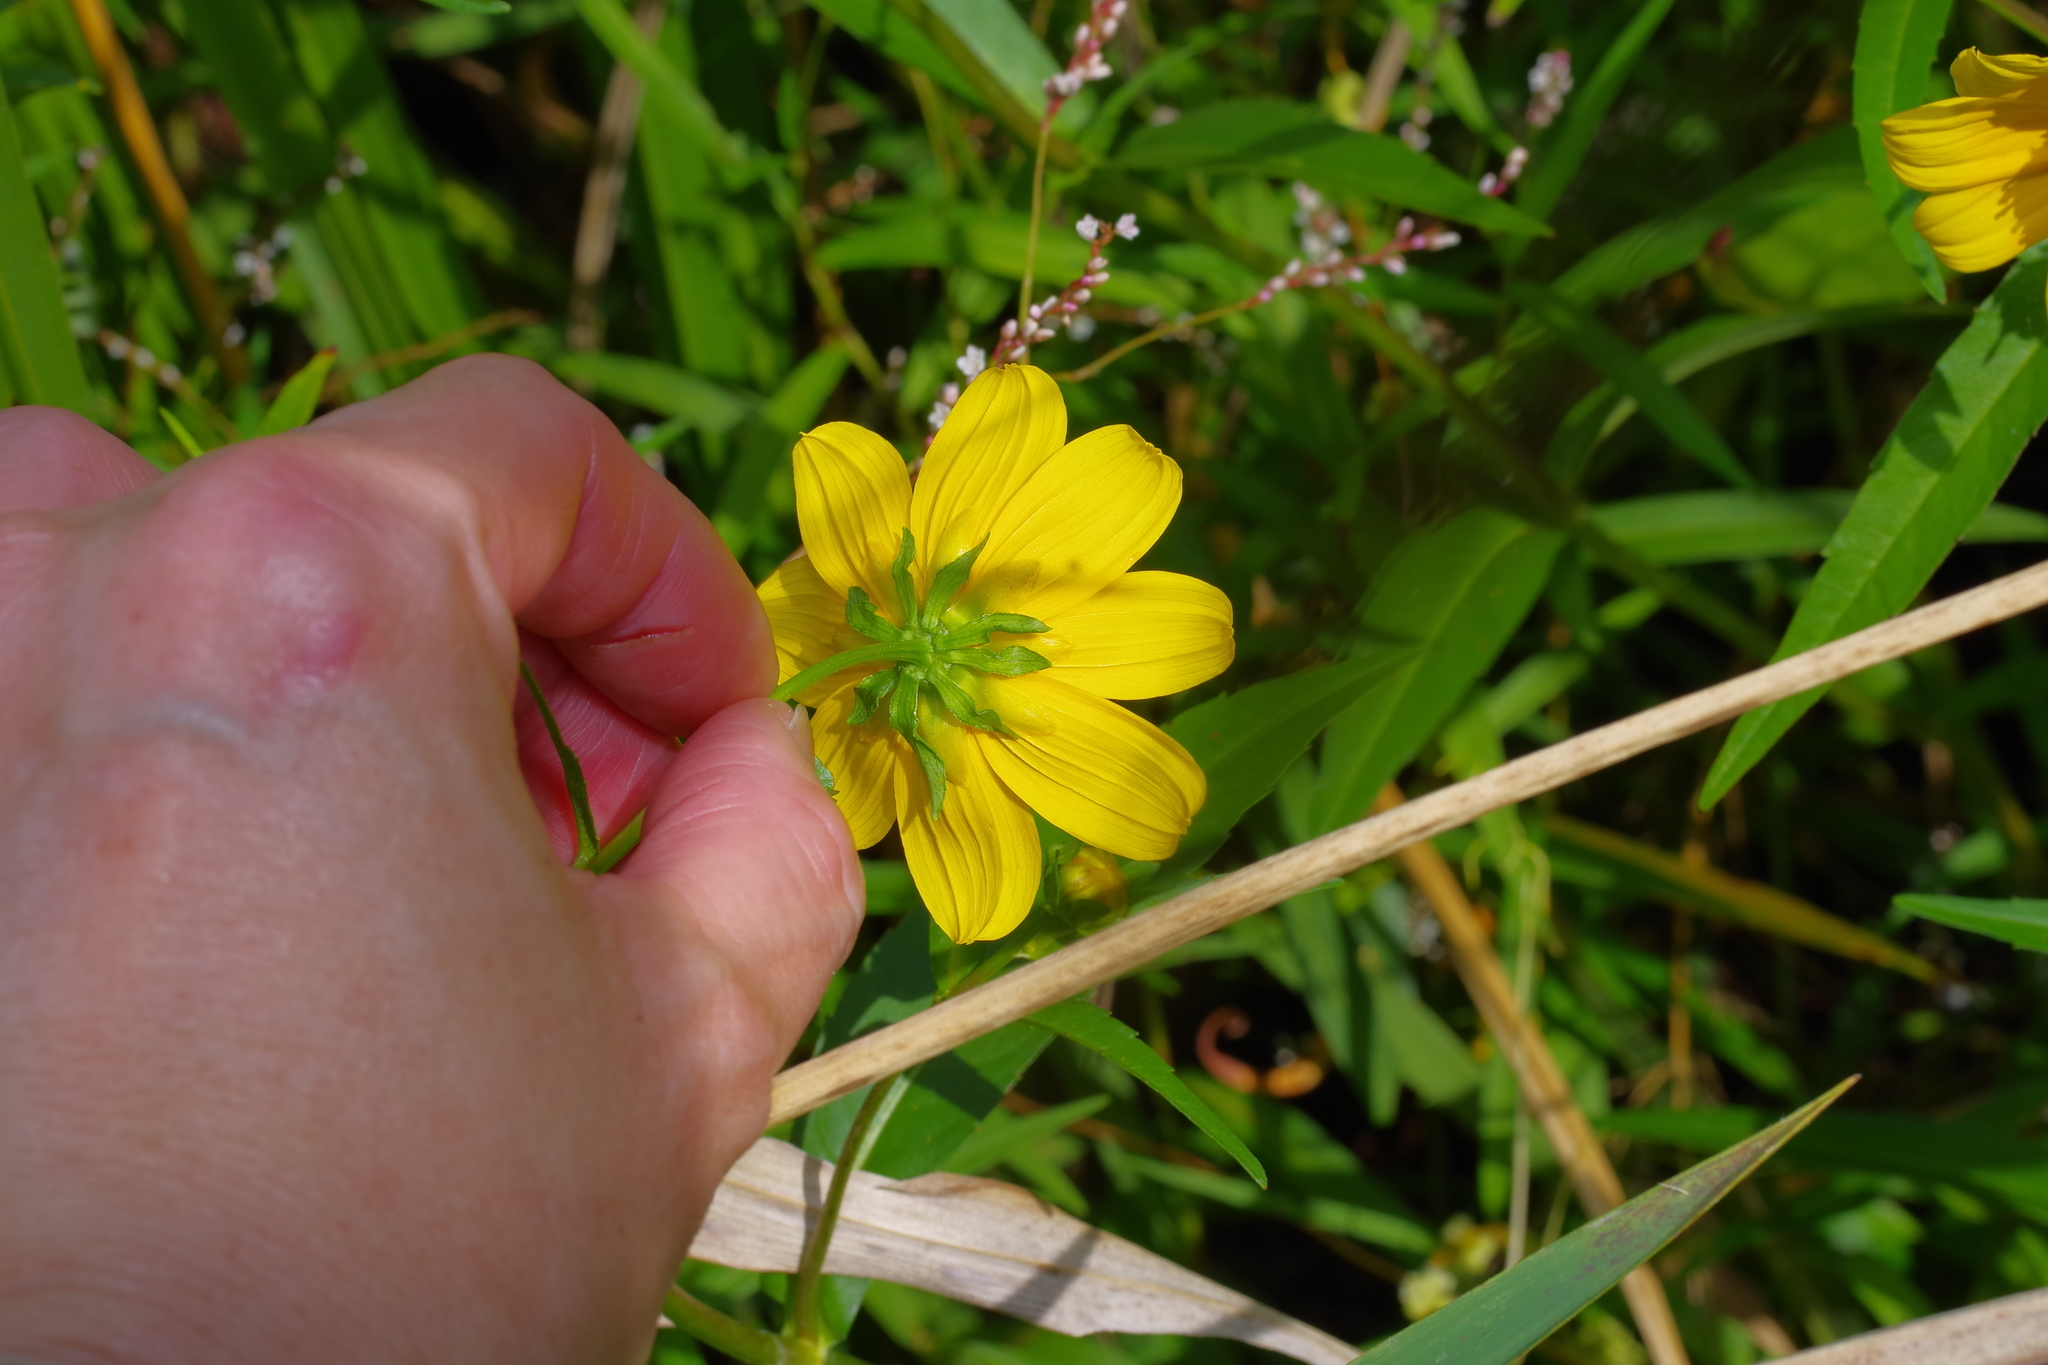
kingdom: Plantae
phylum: Tracheophyta
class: Magnoliopsida
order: Asterales
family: Asteraceae
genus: Bidens
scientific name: Bidens laevis
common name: Larger bur-marigold
